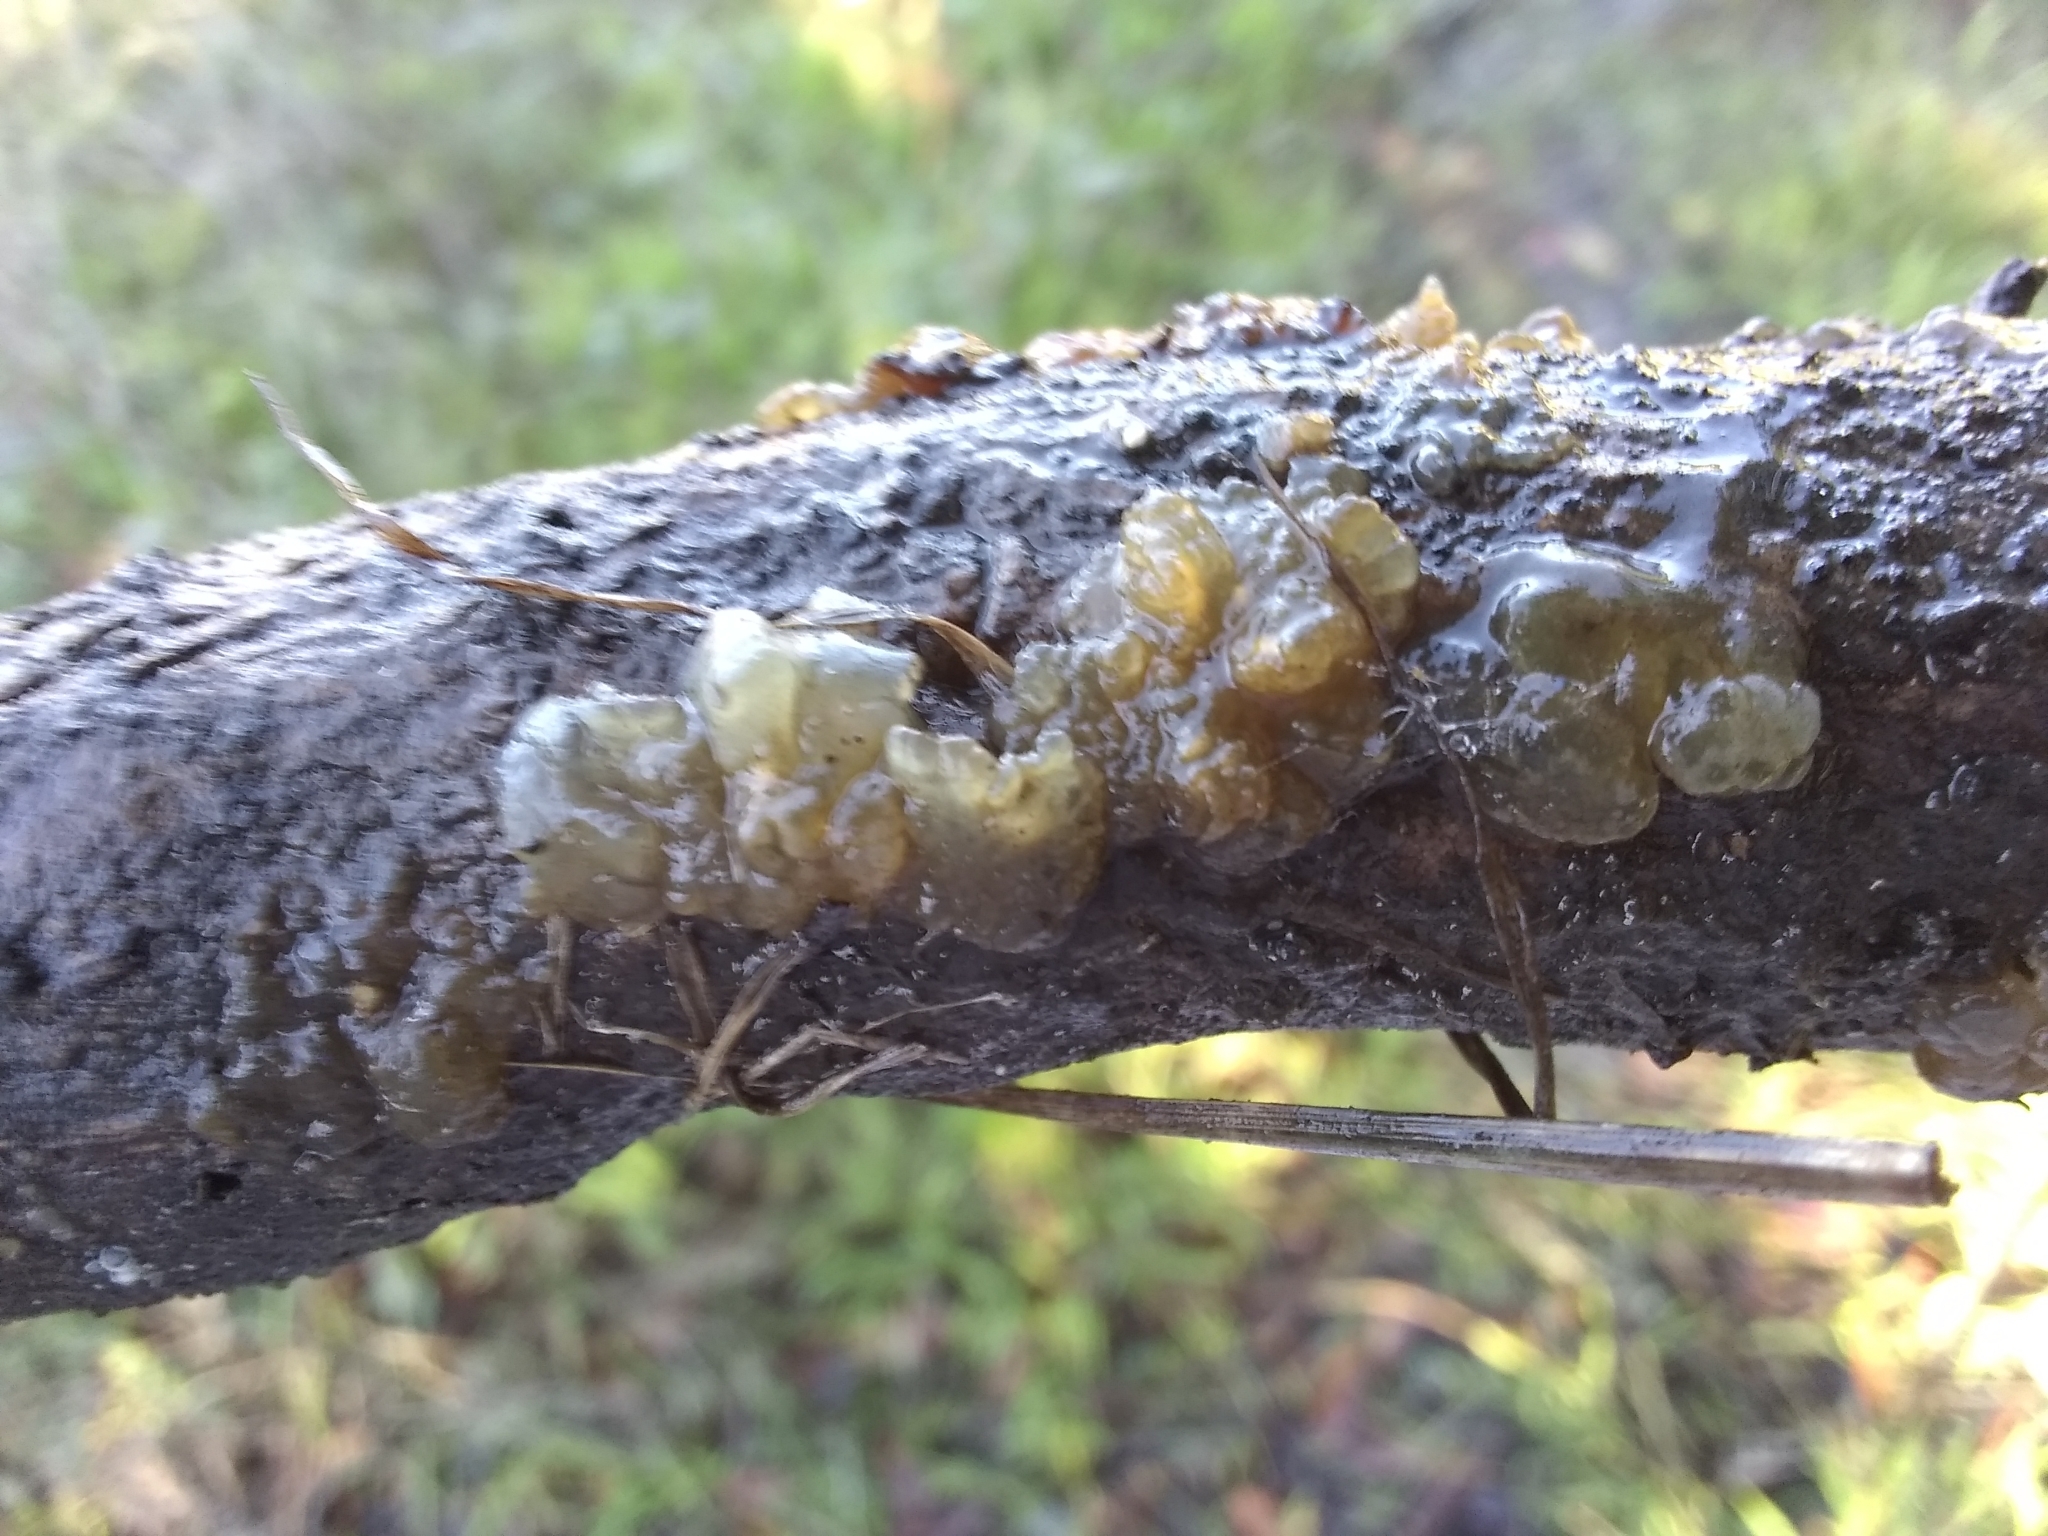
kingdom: Fungi
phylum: Basidiomycota
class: Agaricomycetes
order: Auriculariales
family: Hyaloriaceae
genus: Myxarium
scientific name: Myxarium nucleatum
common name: Crystal brain fungus
